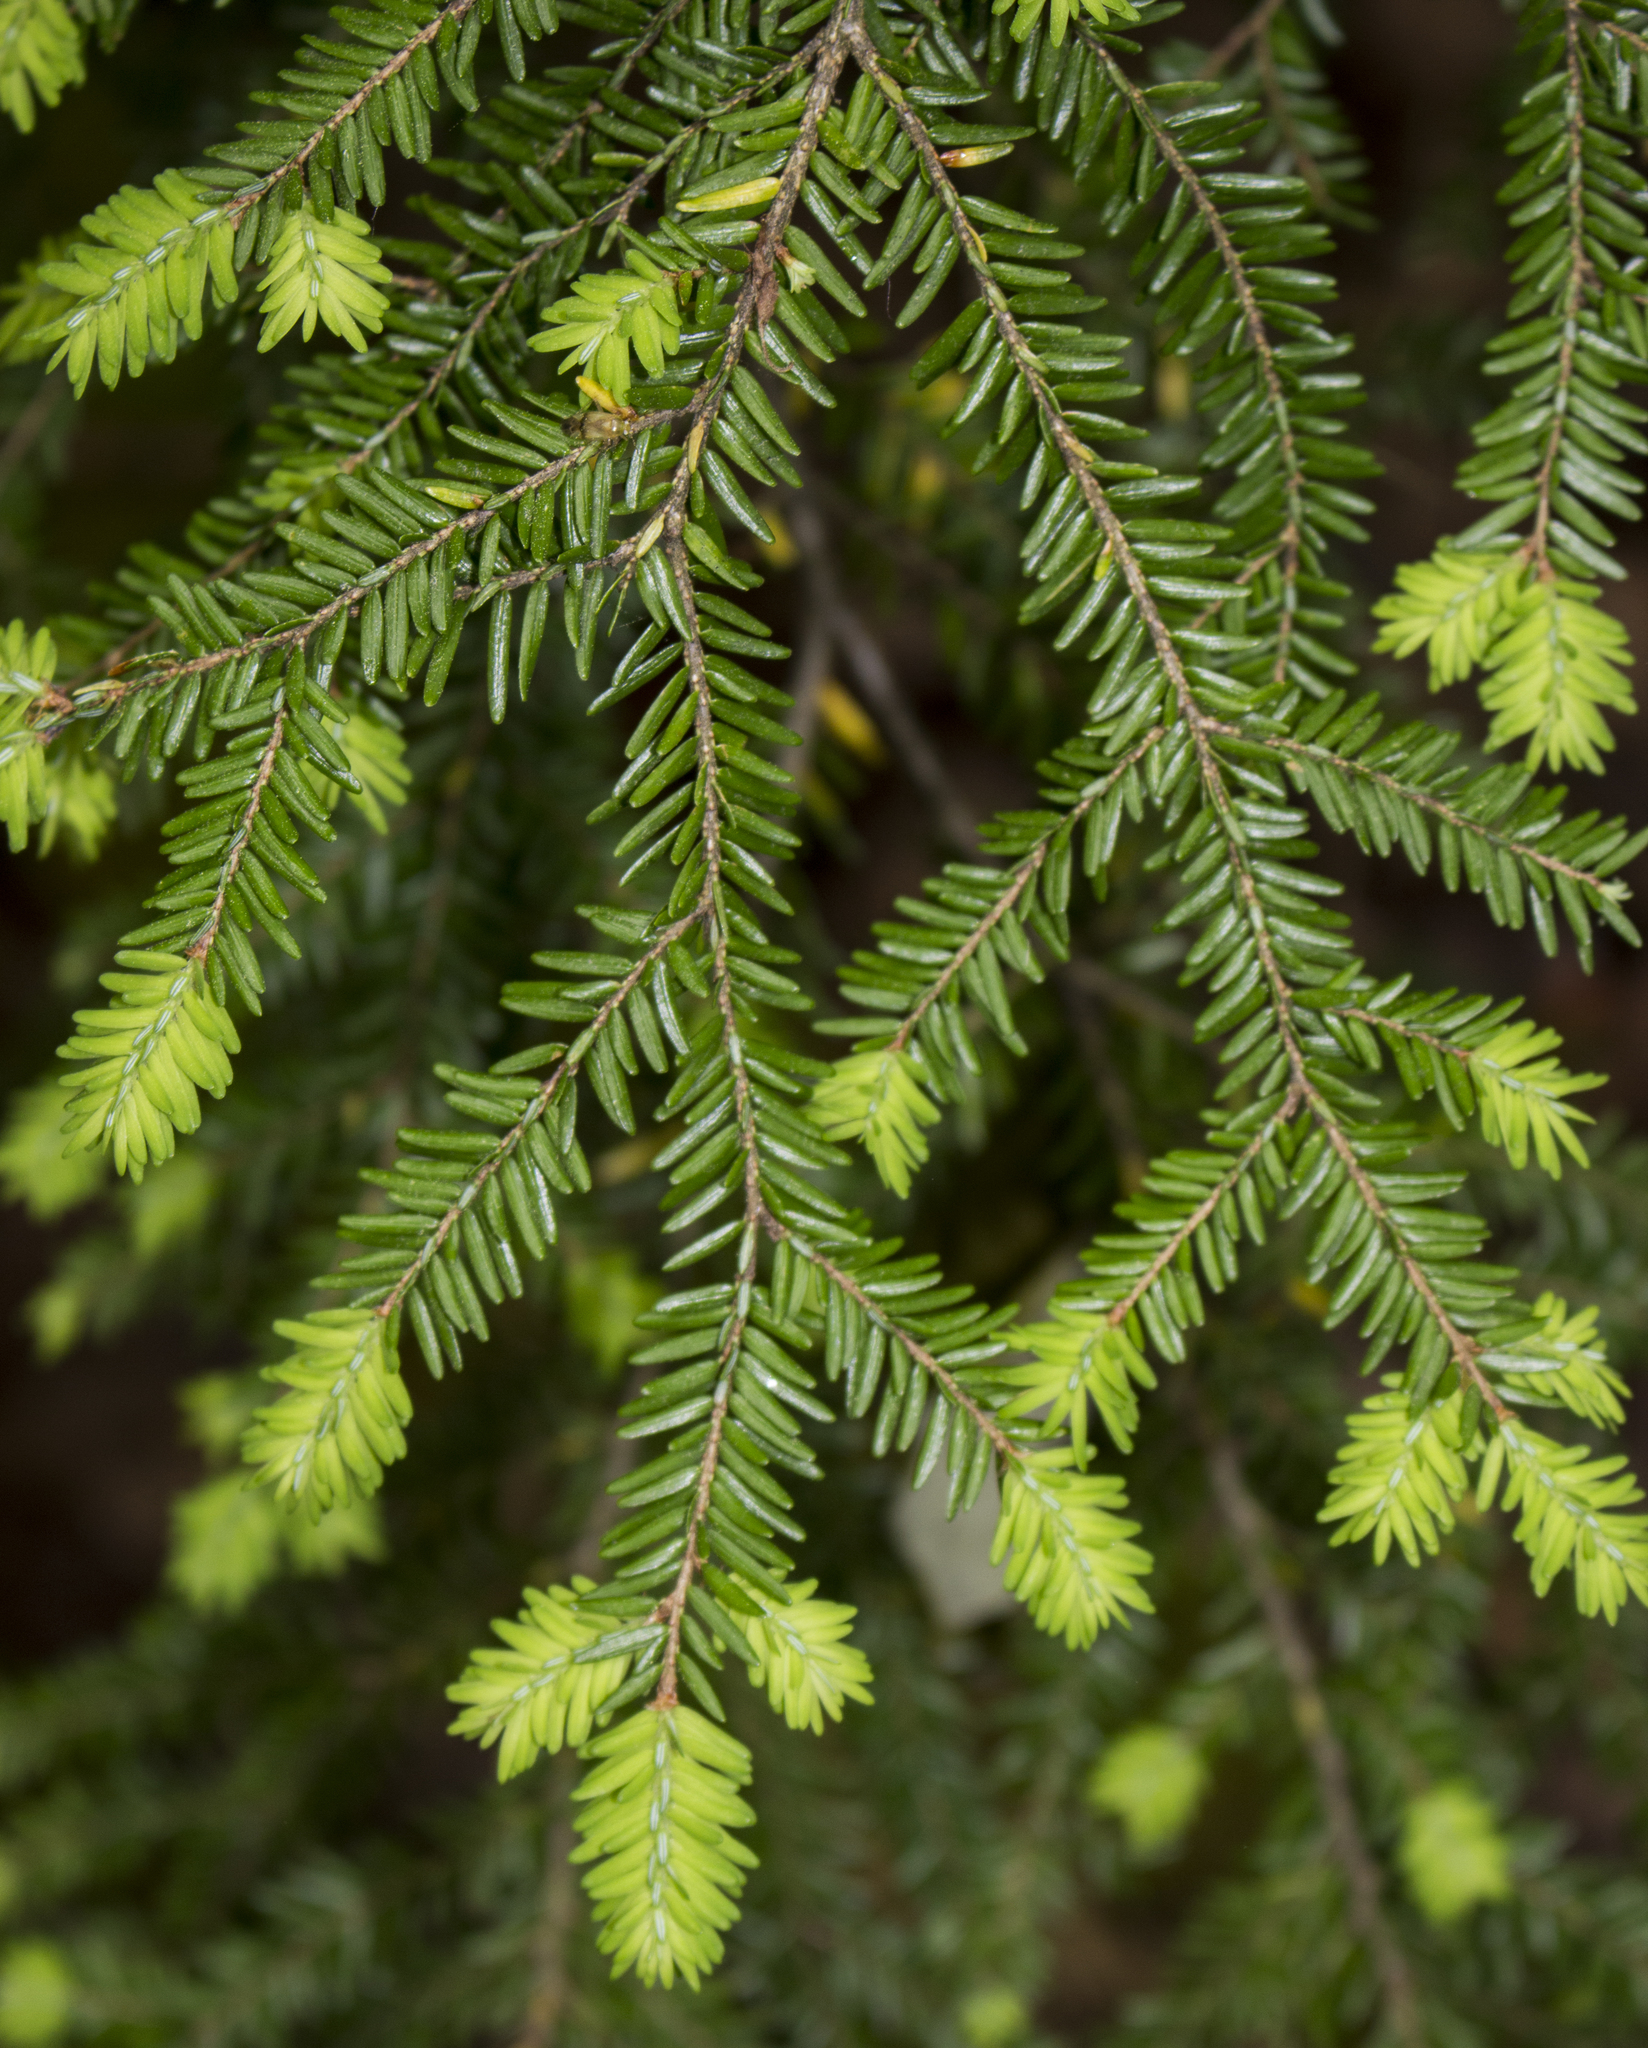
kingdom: Plantae
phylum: Tracheophyta
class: Pinopsida
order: Pinales
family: Pinaceae
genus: Tsuga
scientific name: Tsuga canadensis
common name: Eastern hemlock
